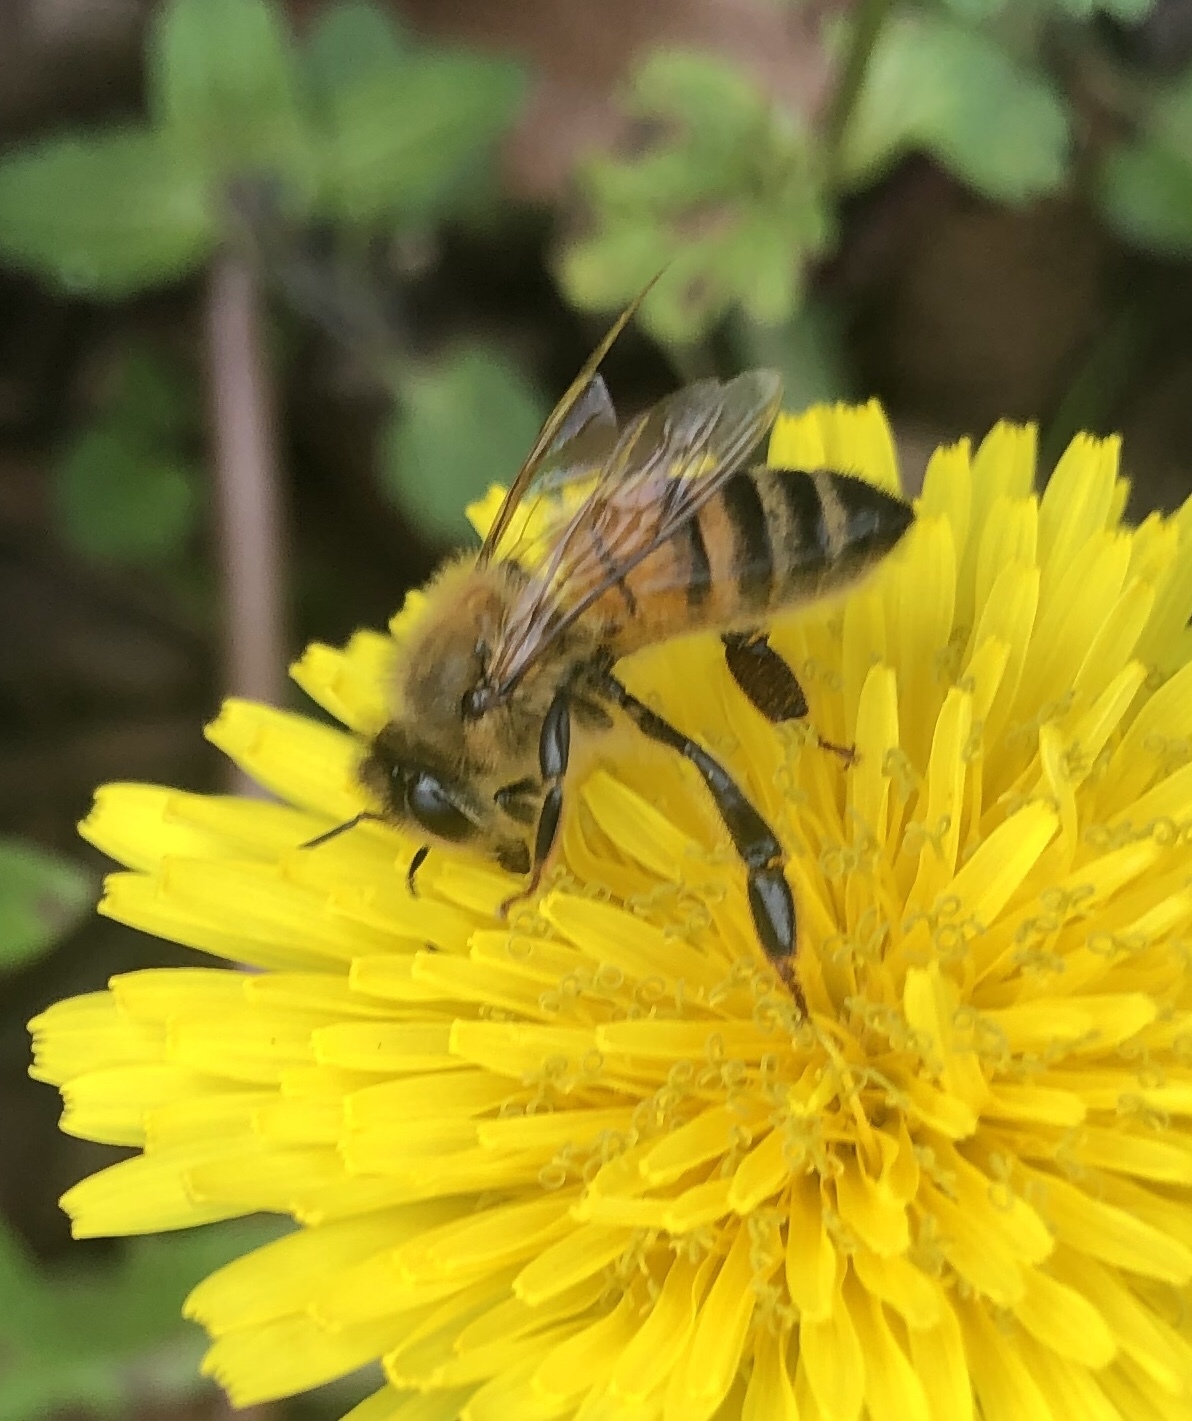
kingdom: Animalia
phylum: Arthropoda
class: Insecta
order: Hymenoptera
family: Apidae
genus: Apis
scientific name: Apis mellifera
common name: Honey bee
